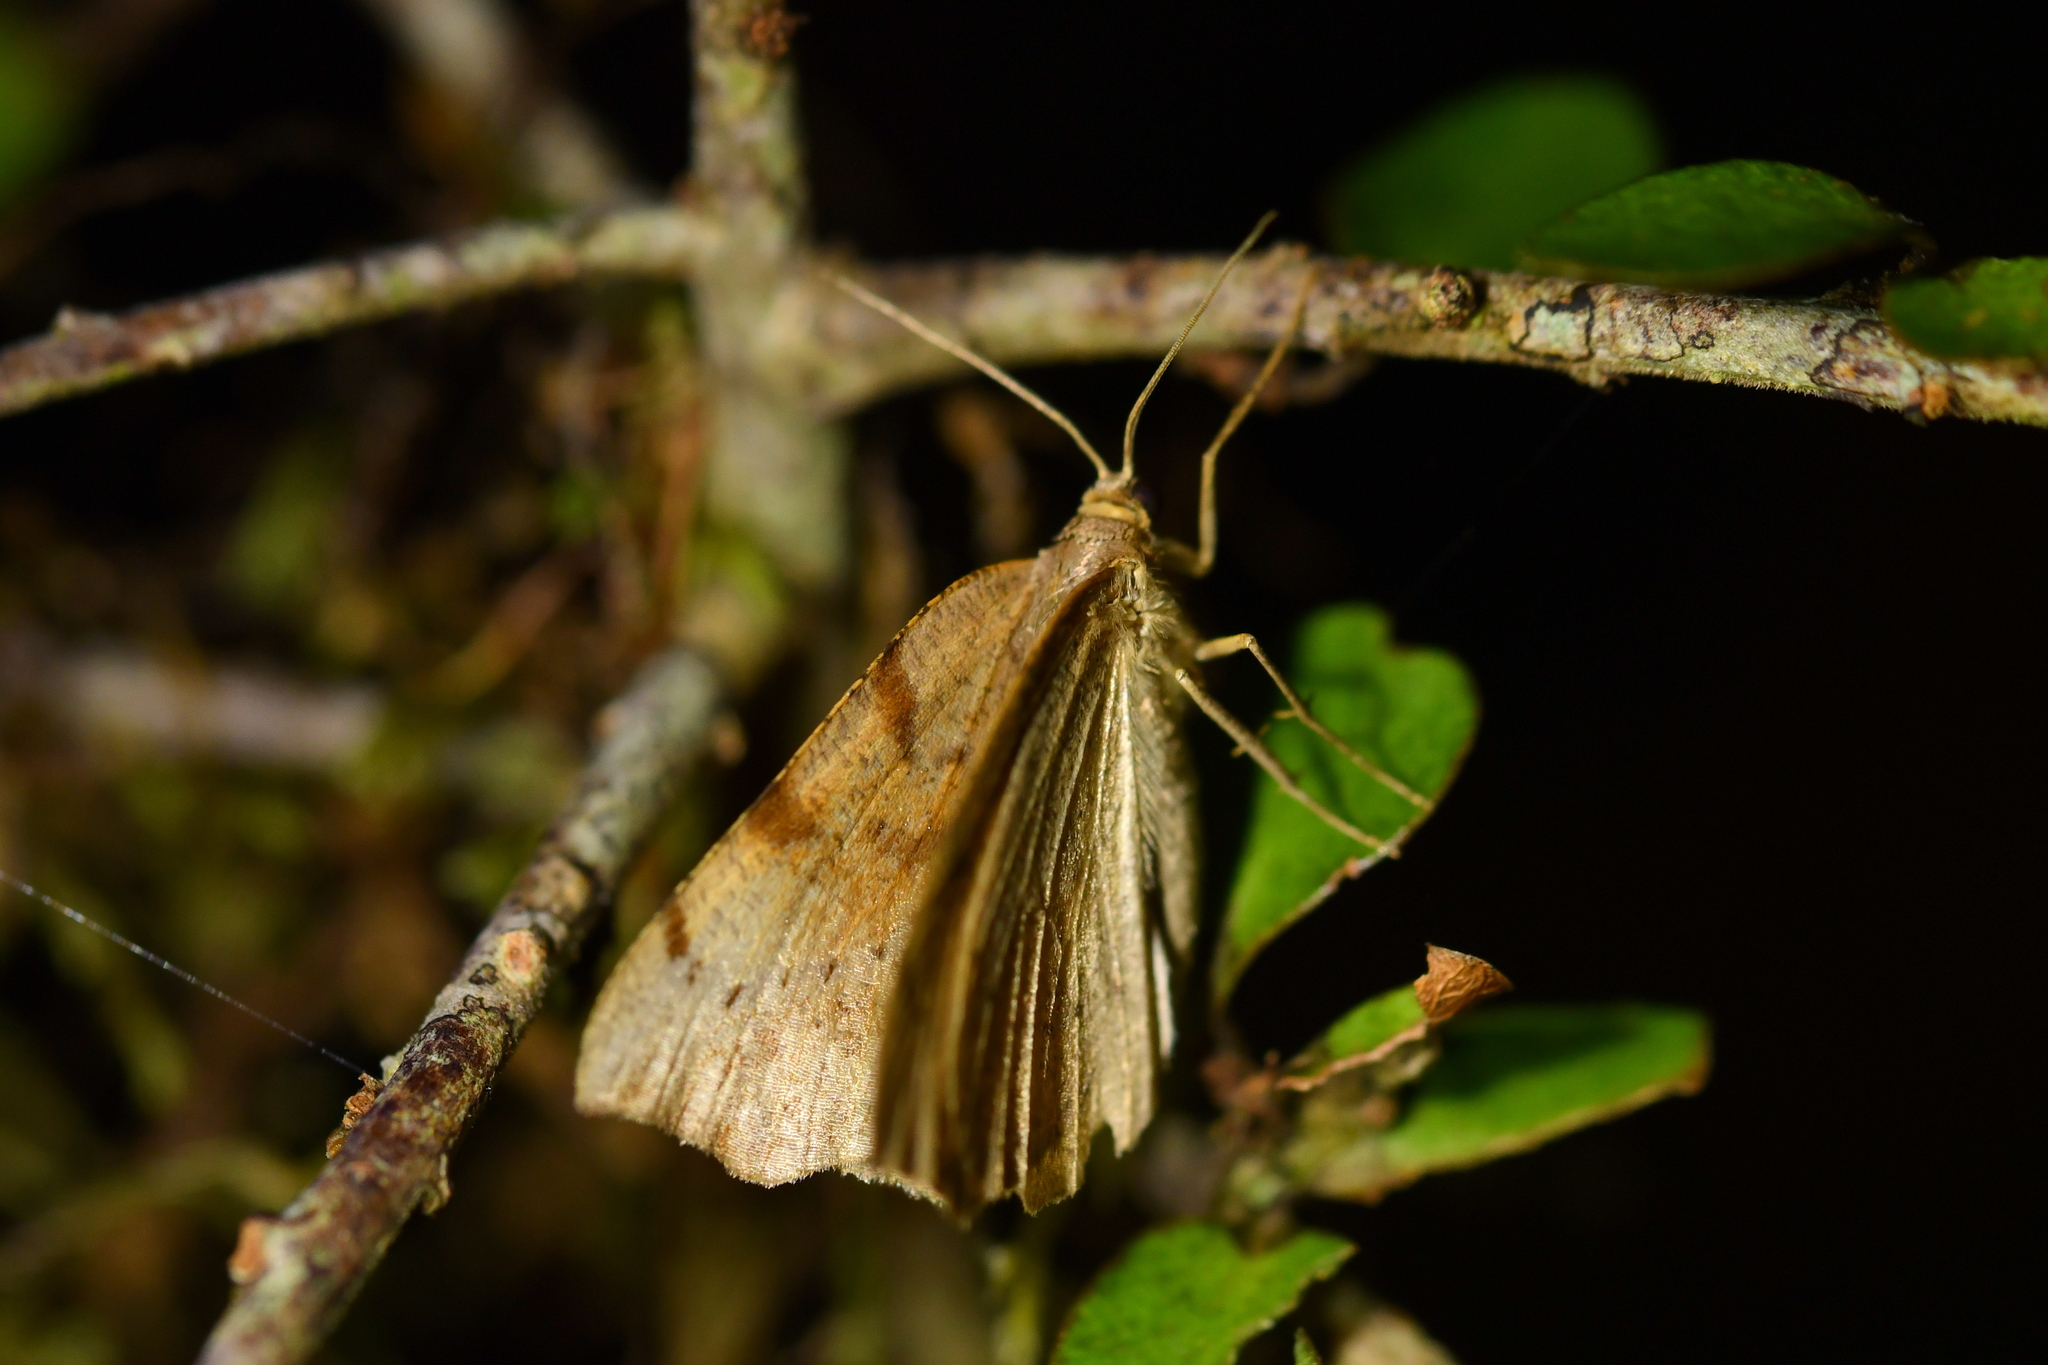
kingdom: Animalia
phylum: Arthropoda
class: Insecta
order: Lepidoptera
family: Geometridae
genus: Sestra
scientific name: Sestra flexata
